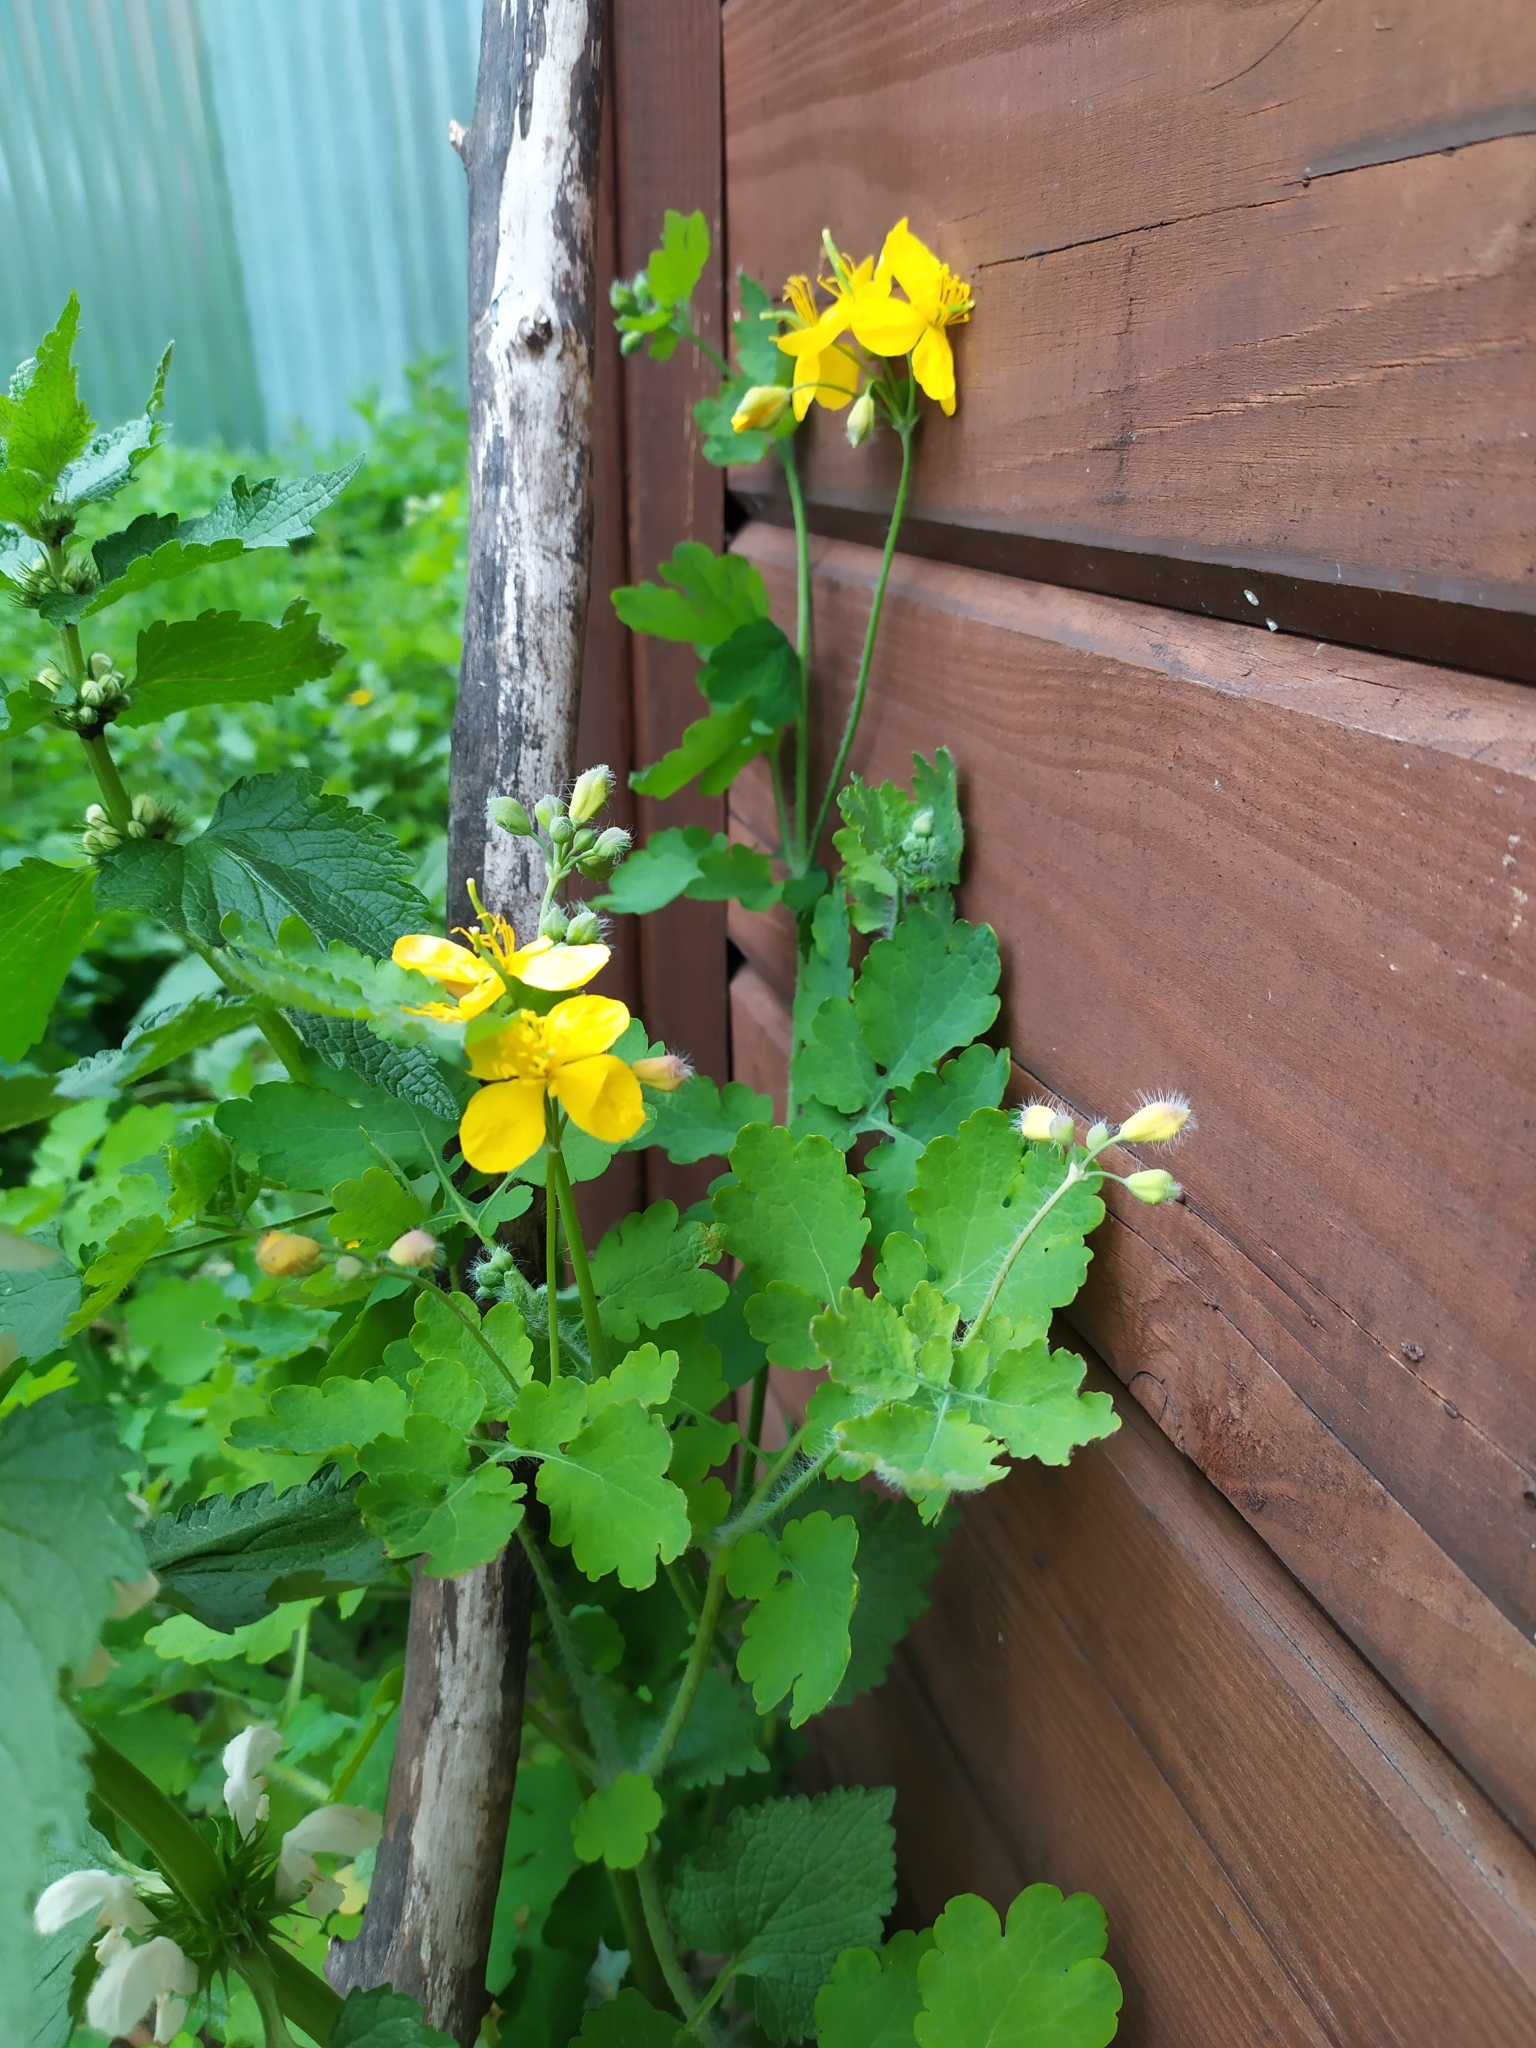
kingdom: Plantae
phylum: Tracheophyta
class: Magnoliopsida
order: Ranunculales
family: Papaveraceae
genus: Chelidonium
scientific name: Chelidonium majus
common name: Greater celandine
